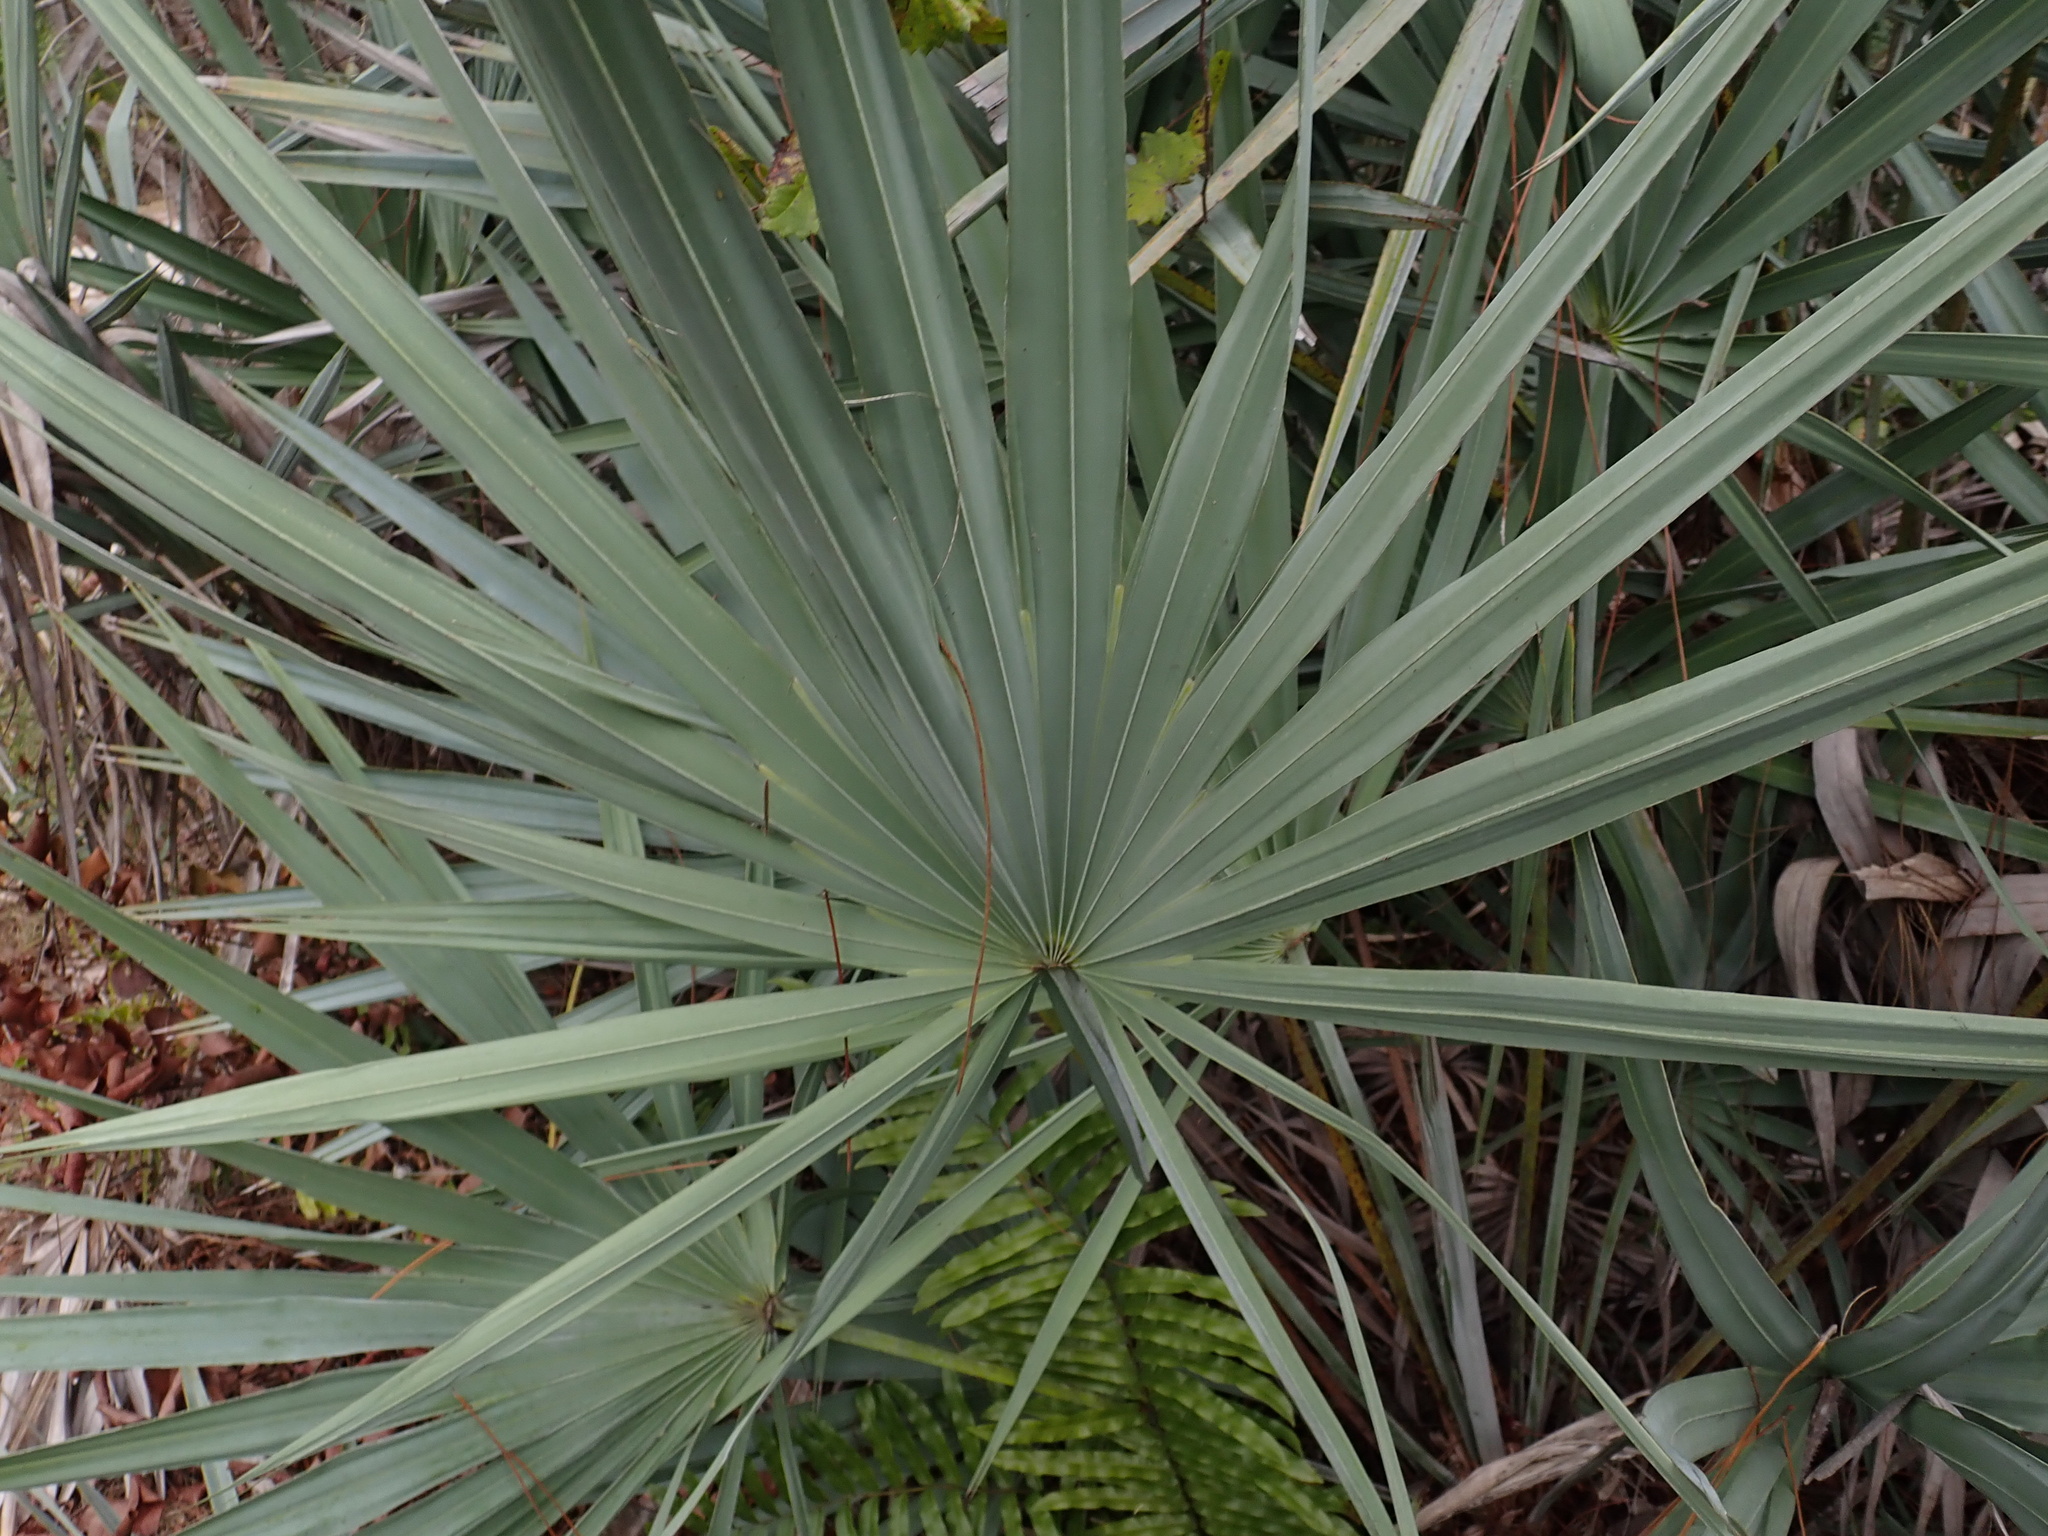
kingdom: Plantae
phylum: Tracheophyta
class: Liliopsida
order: Arecales
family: Arecaceae
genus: Serenoa
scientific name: Serenoa repens
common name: Saw-palmetto
